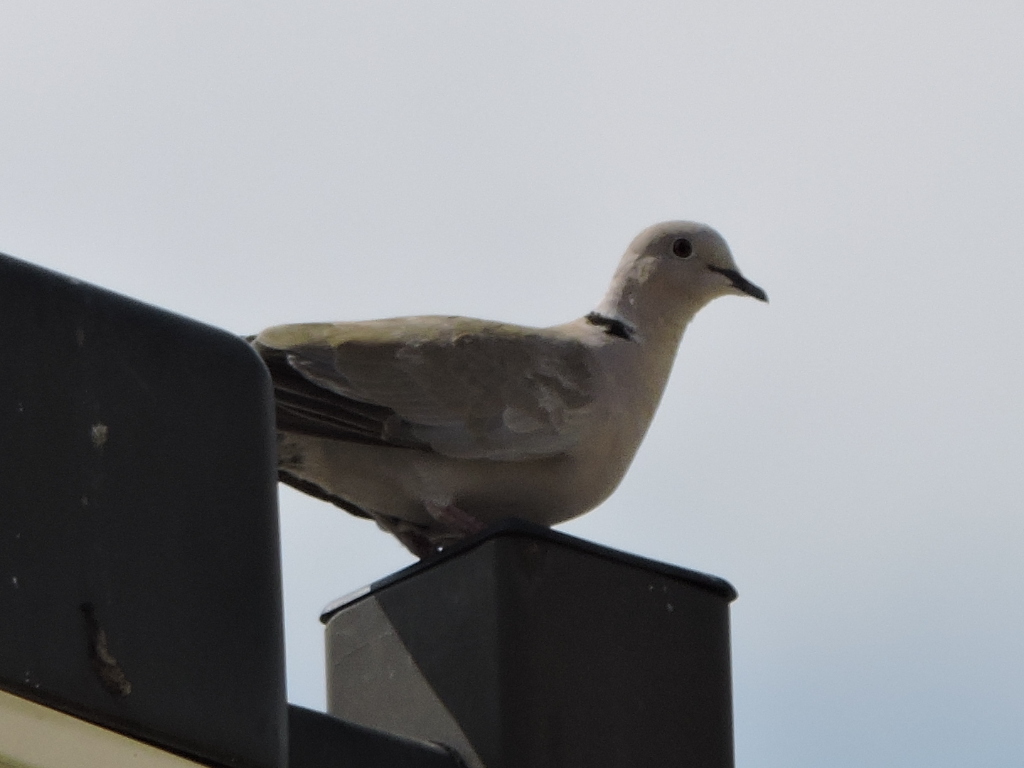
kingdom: Animalia
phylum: Chordata
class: Aves
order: Columbiformes
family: Columbidae
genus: Streptopelia
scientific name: Streptopelia decaocto
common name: Eurasian collared dove
